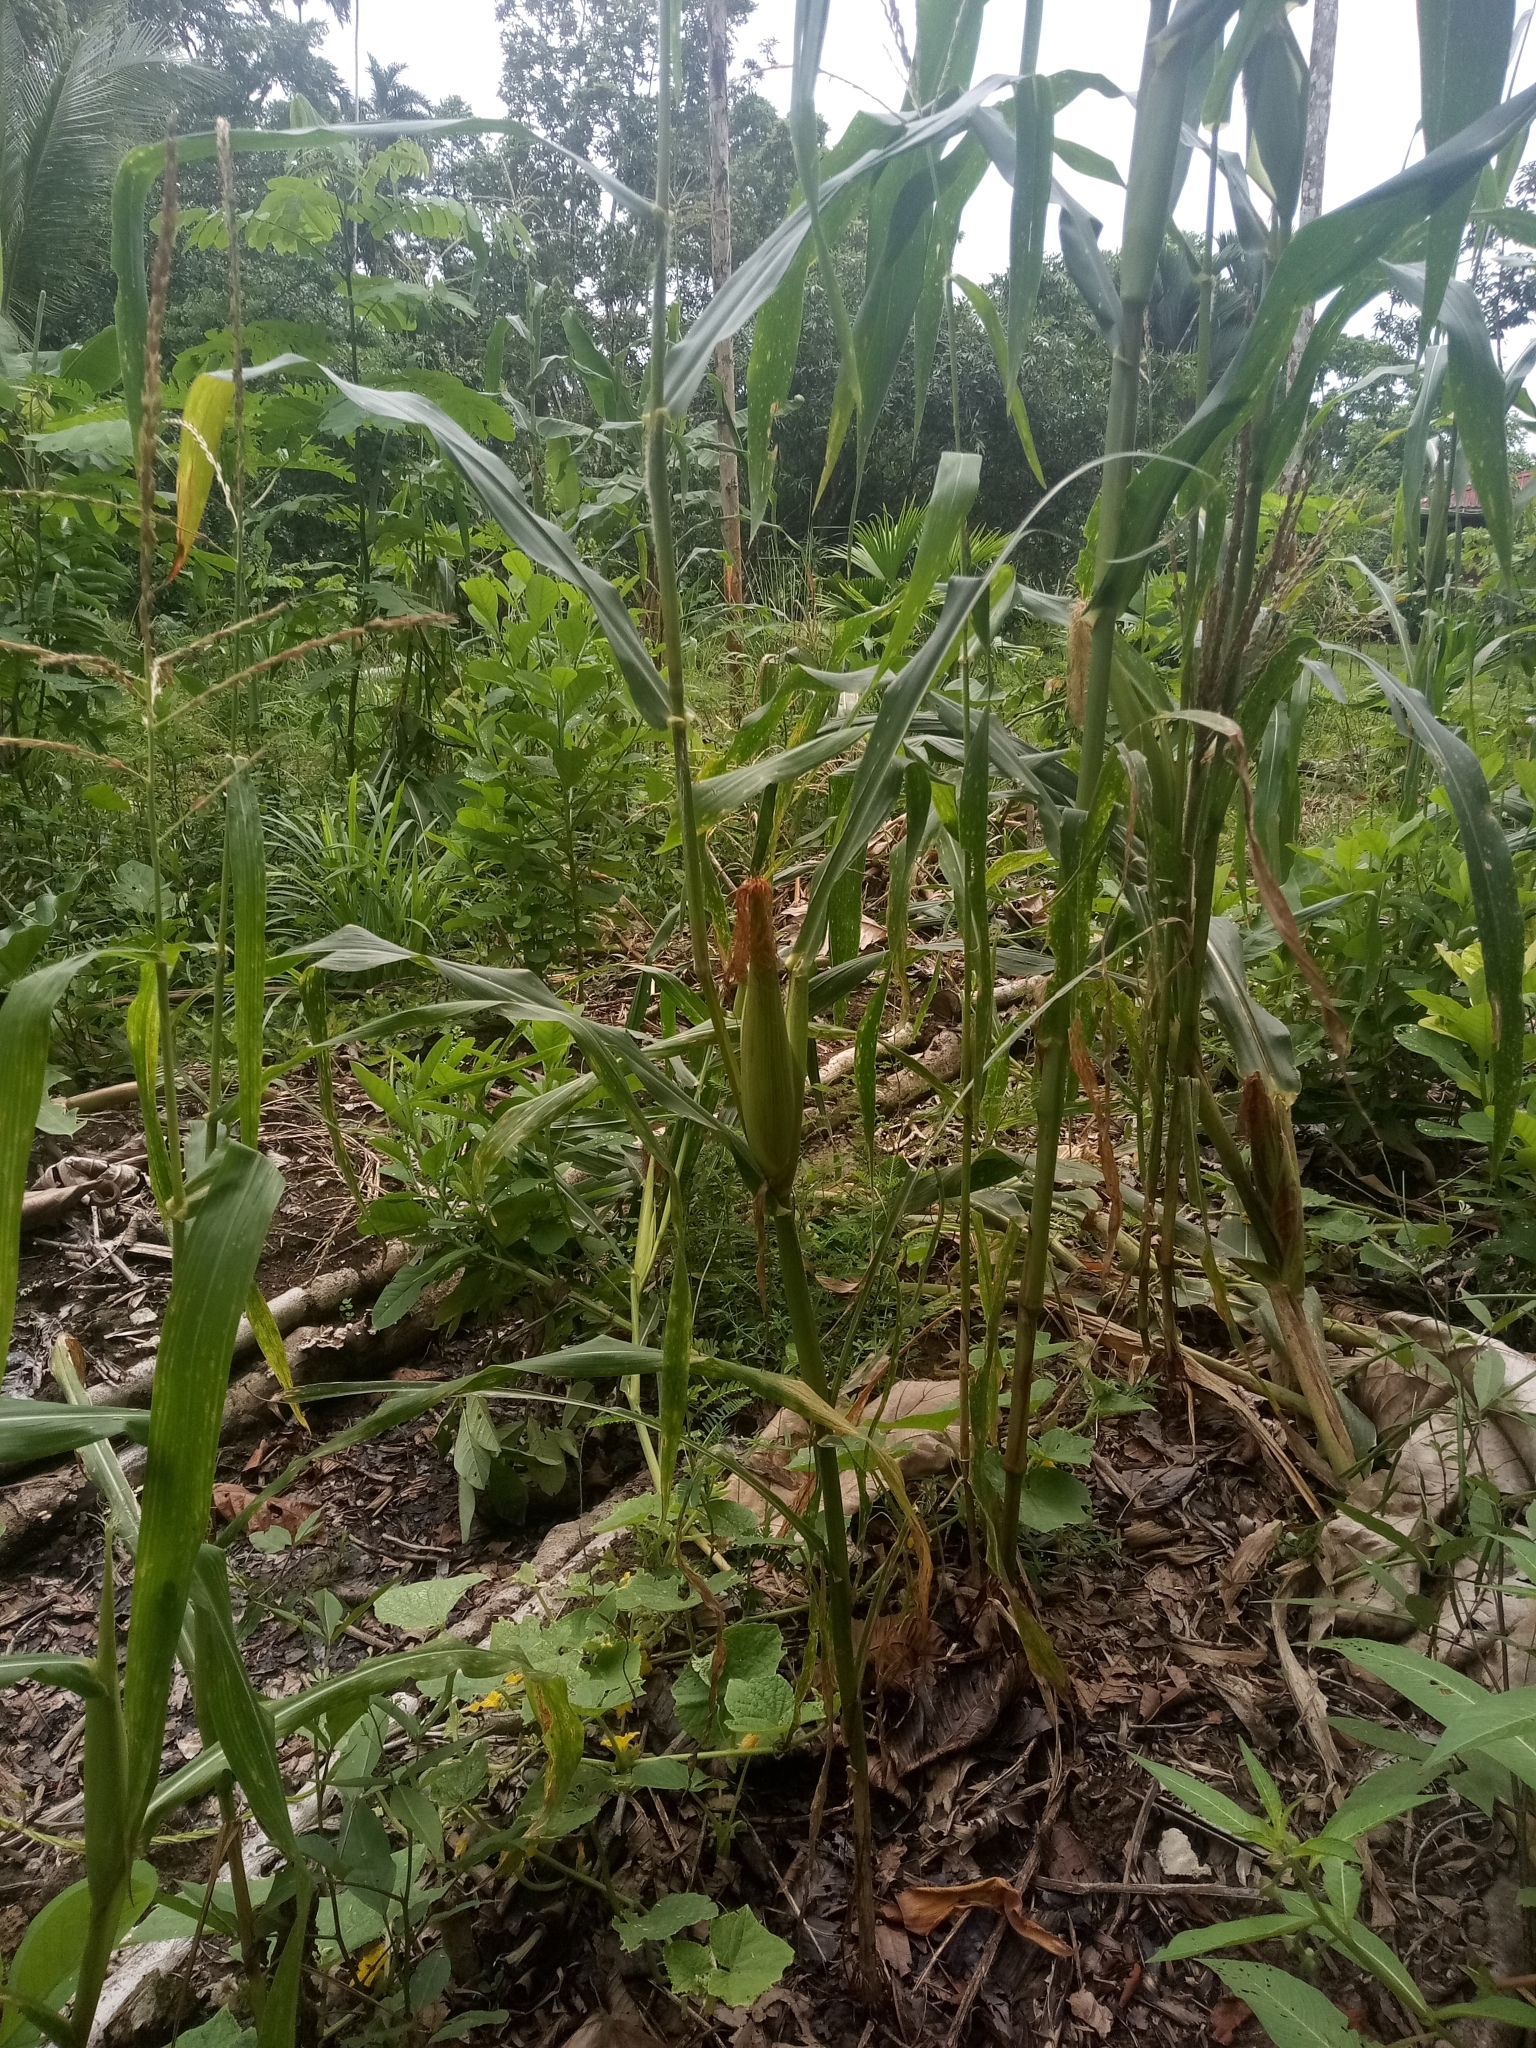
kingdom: Plantae
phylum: Tracheophyta
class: Liliopsida
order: Poales
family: Poaceae
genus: Zea
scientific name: Zea mays
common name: Maize
